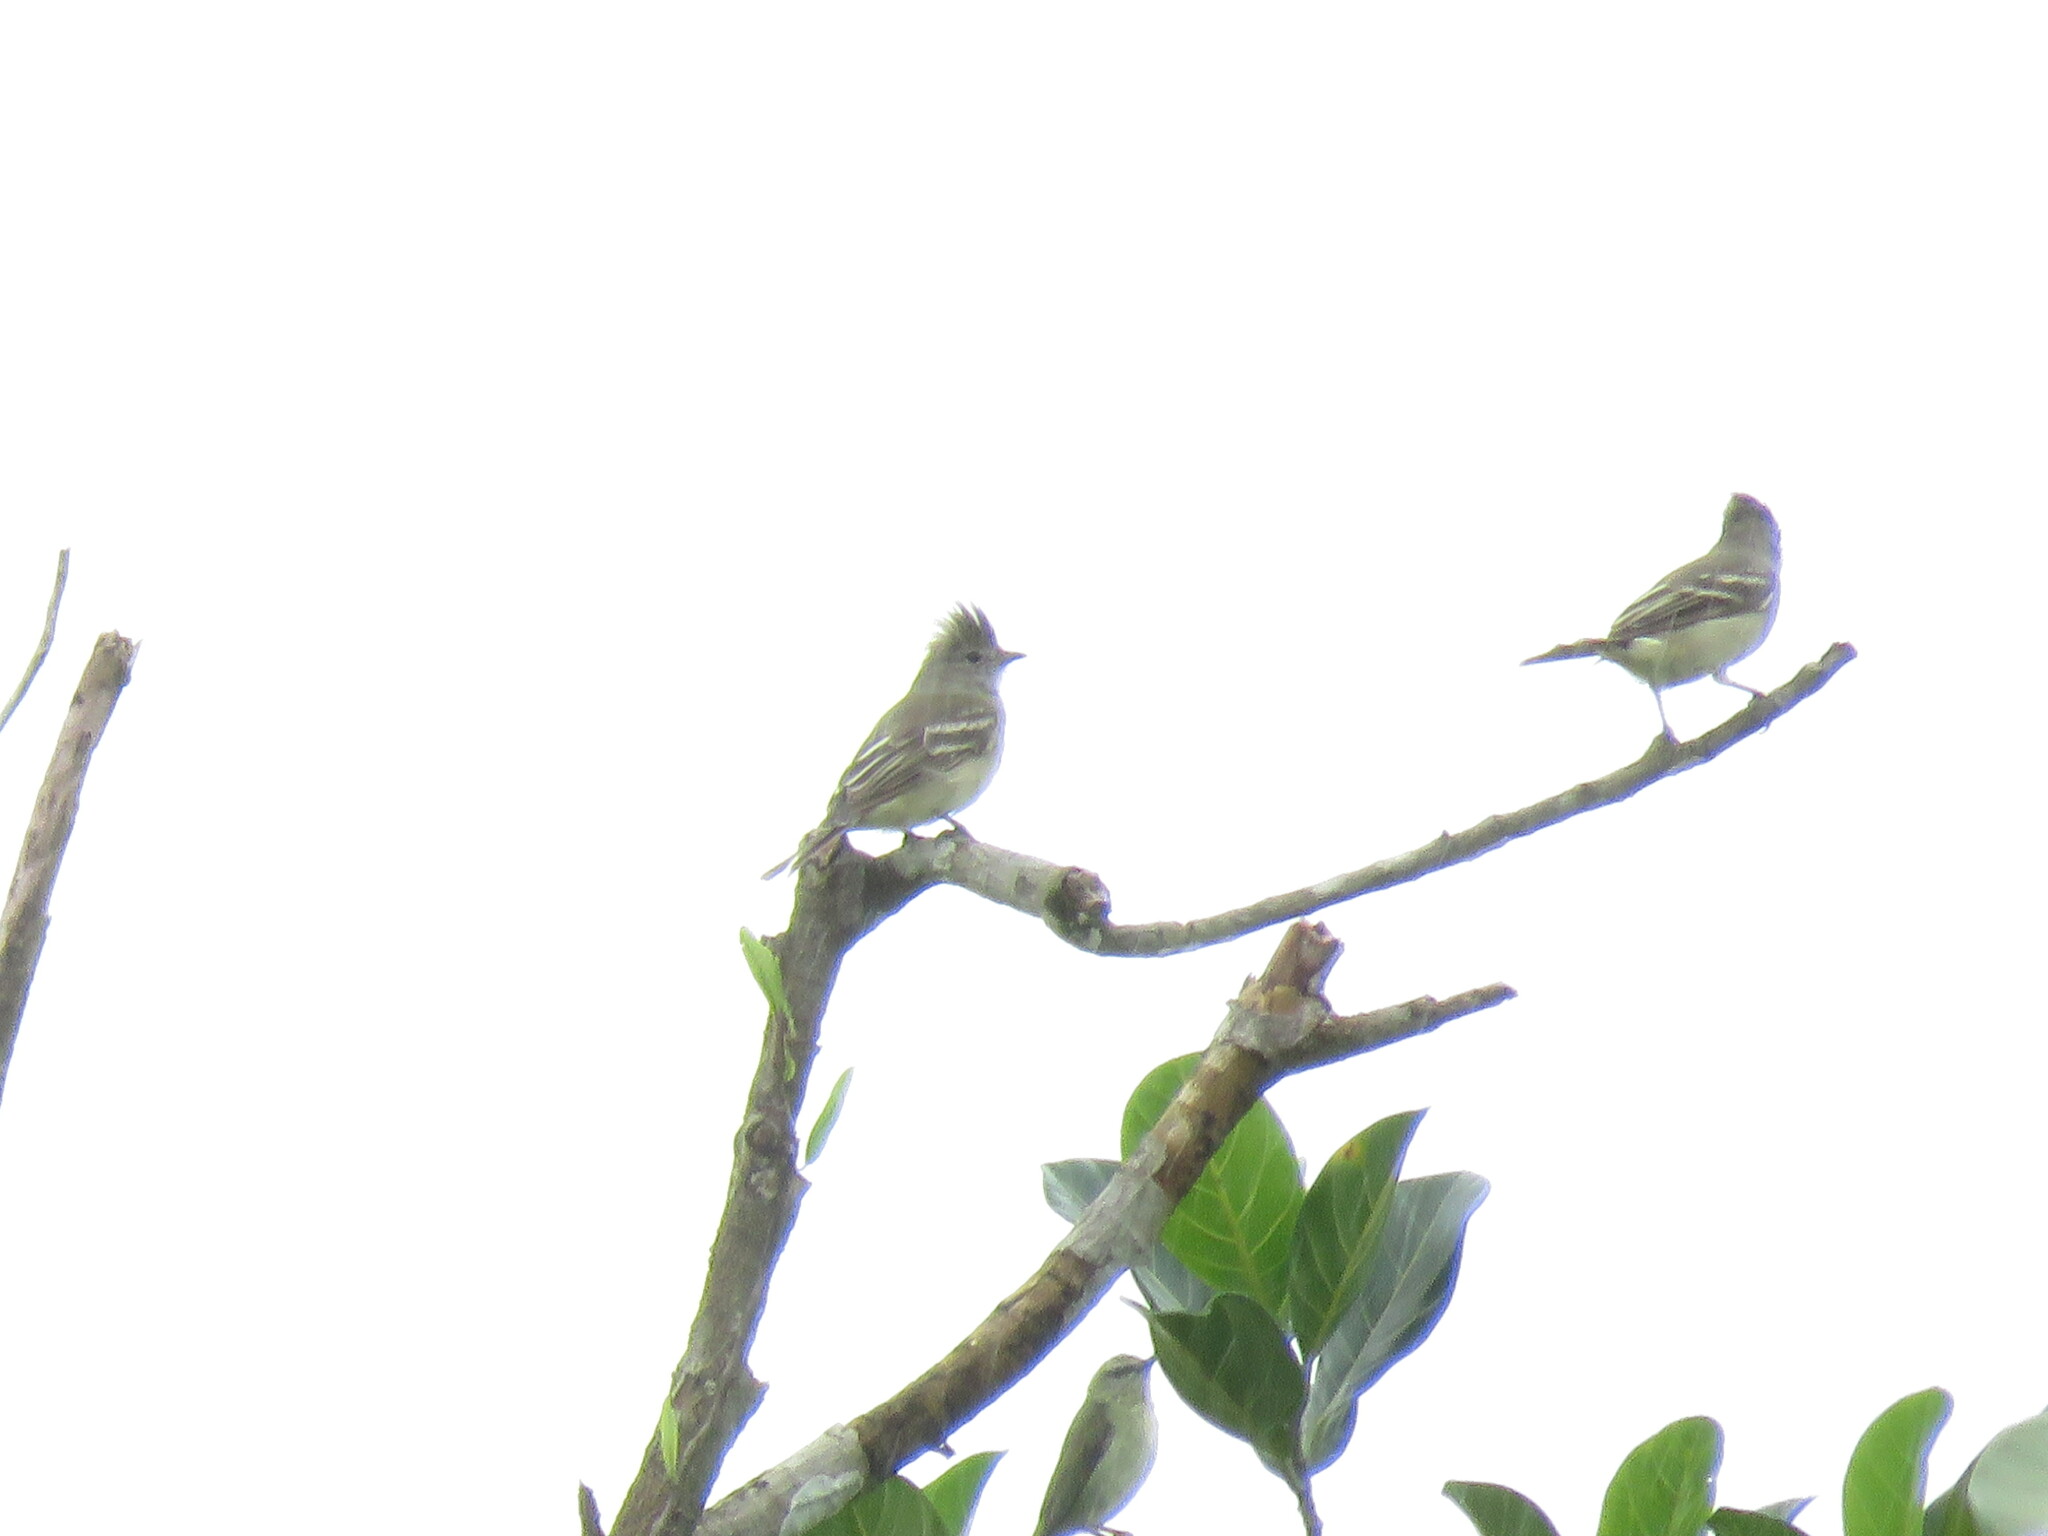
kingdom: Animalia
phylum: Chordata
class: Aves
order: Passeriformes
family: Tyrannidae
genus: Elaenia
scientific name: Elaenia flavogaster
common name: Yellow-bellied elaenia
